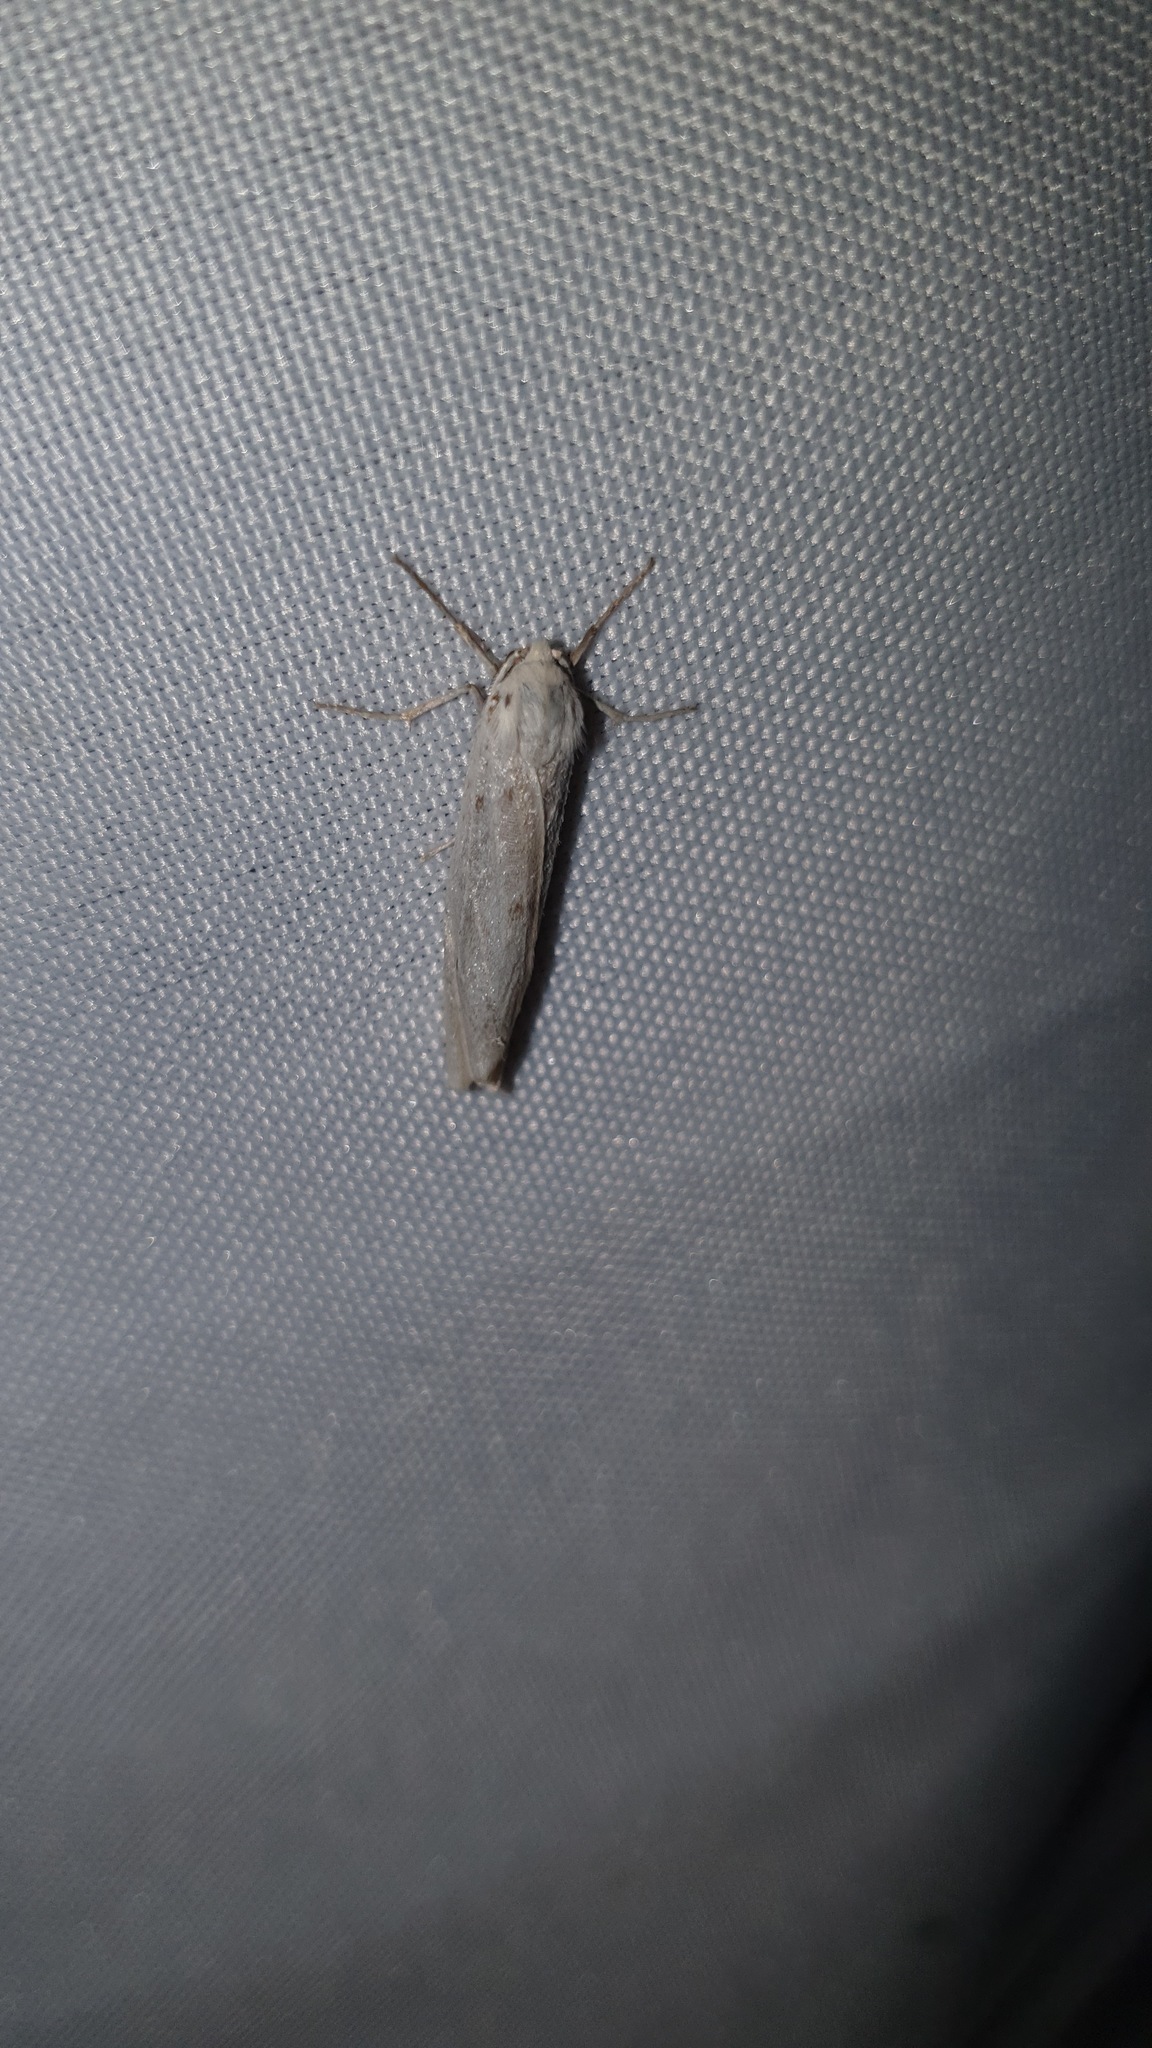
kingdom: Animalia
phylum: Arthropoda
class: Insecta
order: Lepidoptera
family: Erebidae
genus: Coscinia
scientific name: Coscinia cribraria
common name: Speckled footman
